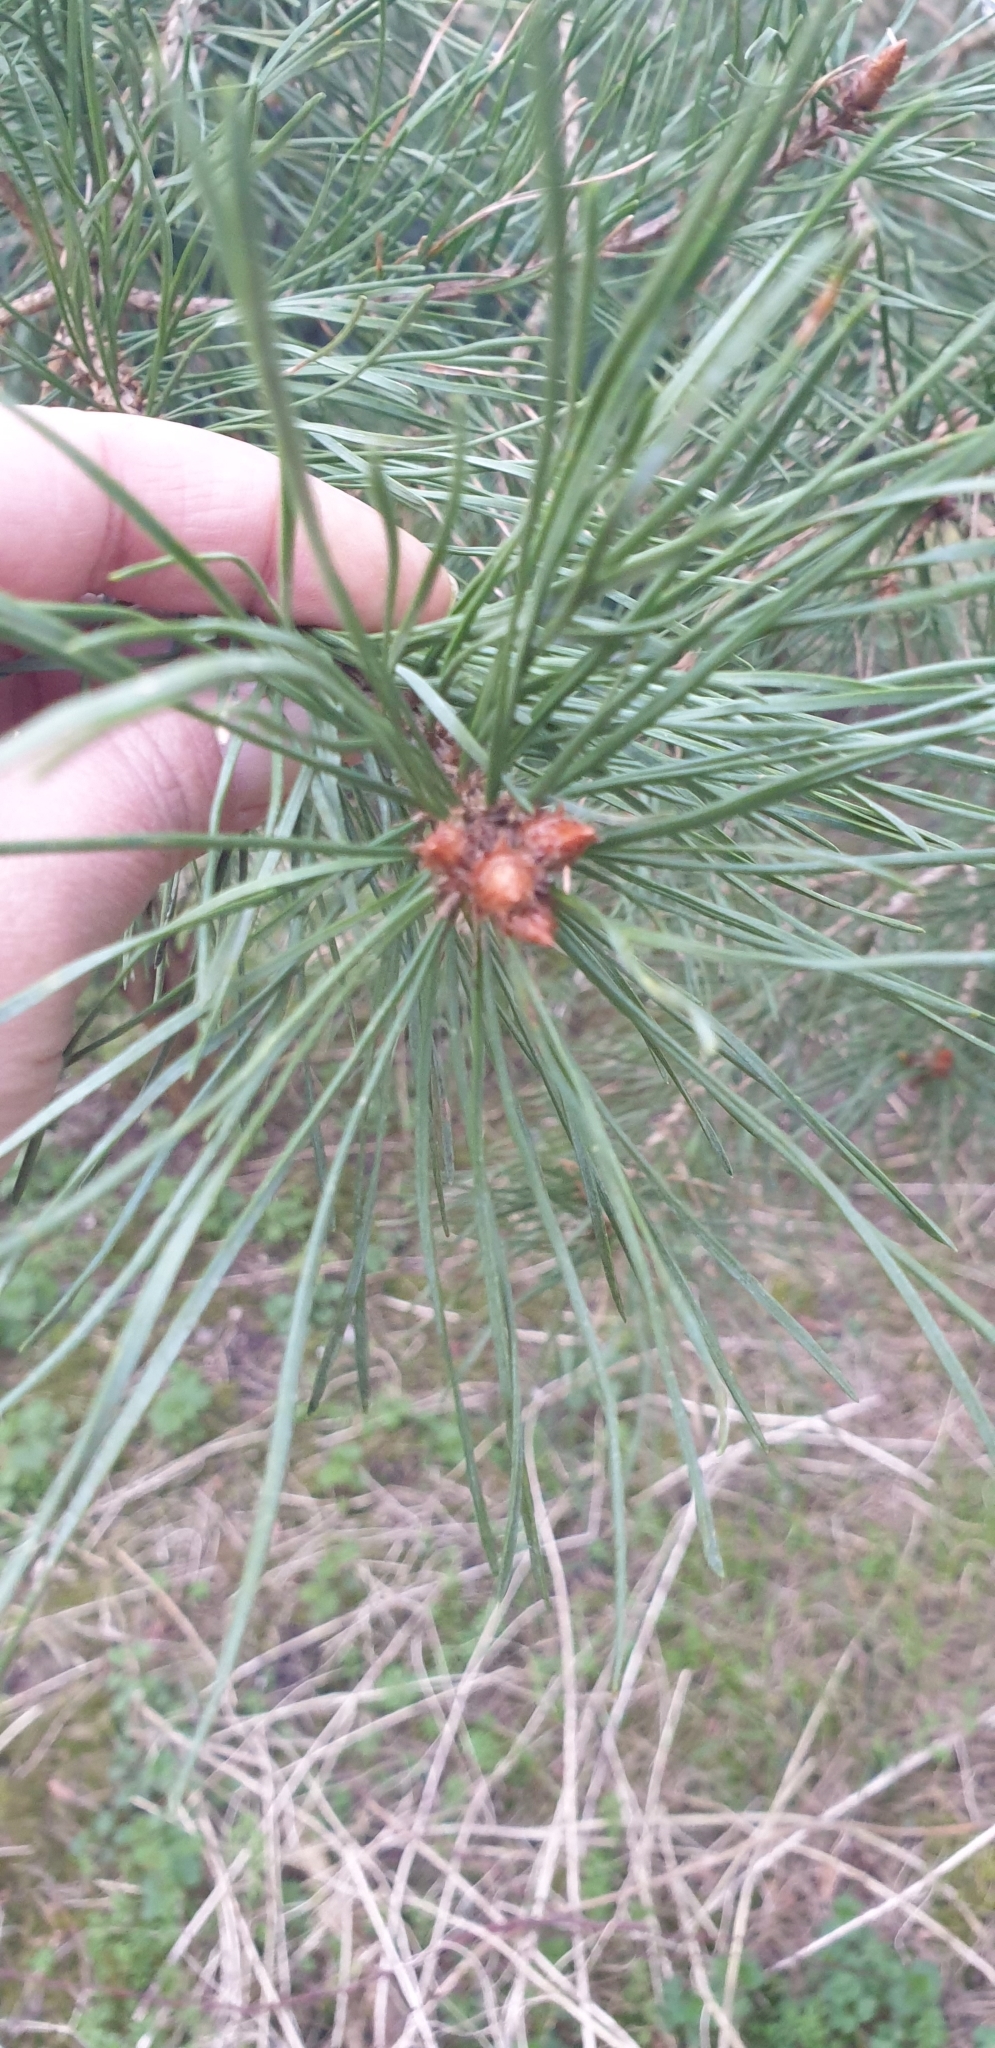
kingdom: Plantae
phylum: Tracheophyta
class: Pinopsida
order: Pinales
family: Pinaceae
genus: Pinus
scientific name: Pinus sylvestris
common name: Scots pine
